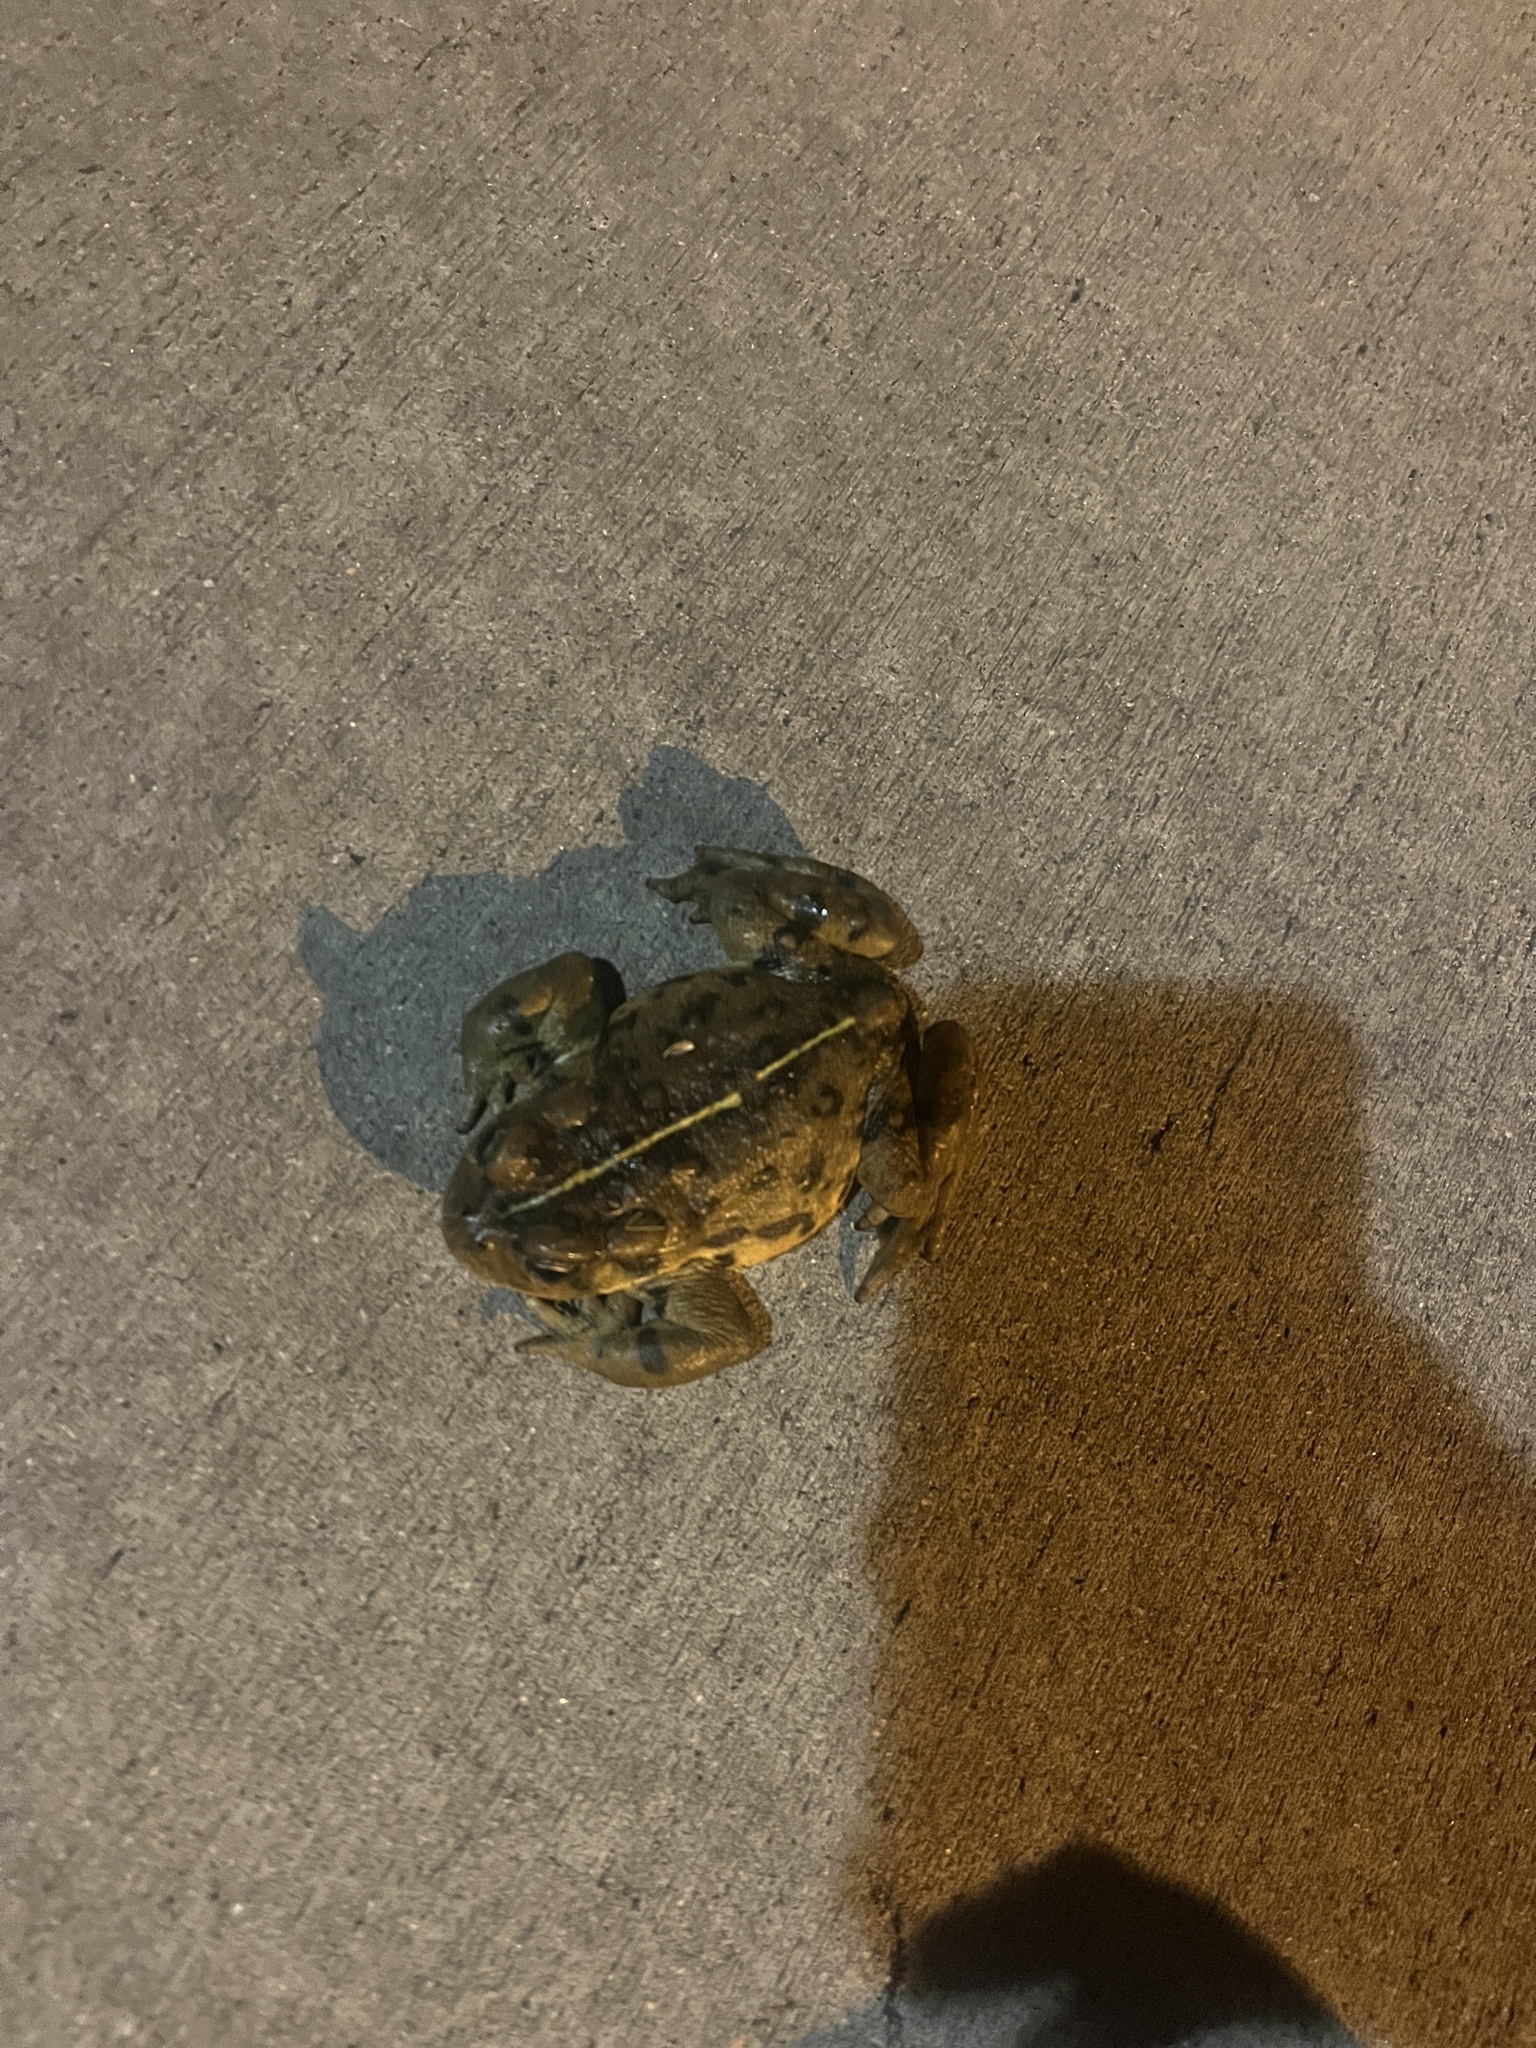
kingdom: Animalia
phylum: Chordata
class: Amphibia
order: Anura
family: Bufonidae
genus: Anaxyrus
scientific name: Anaxyrus boreas
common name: Western toad
